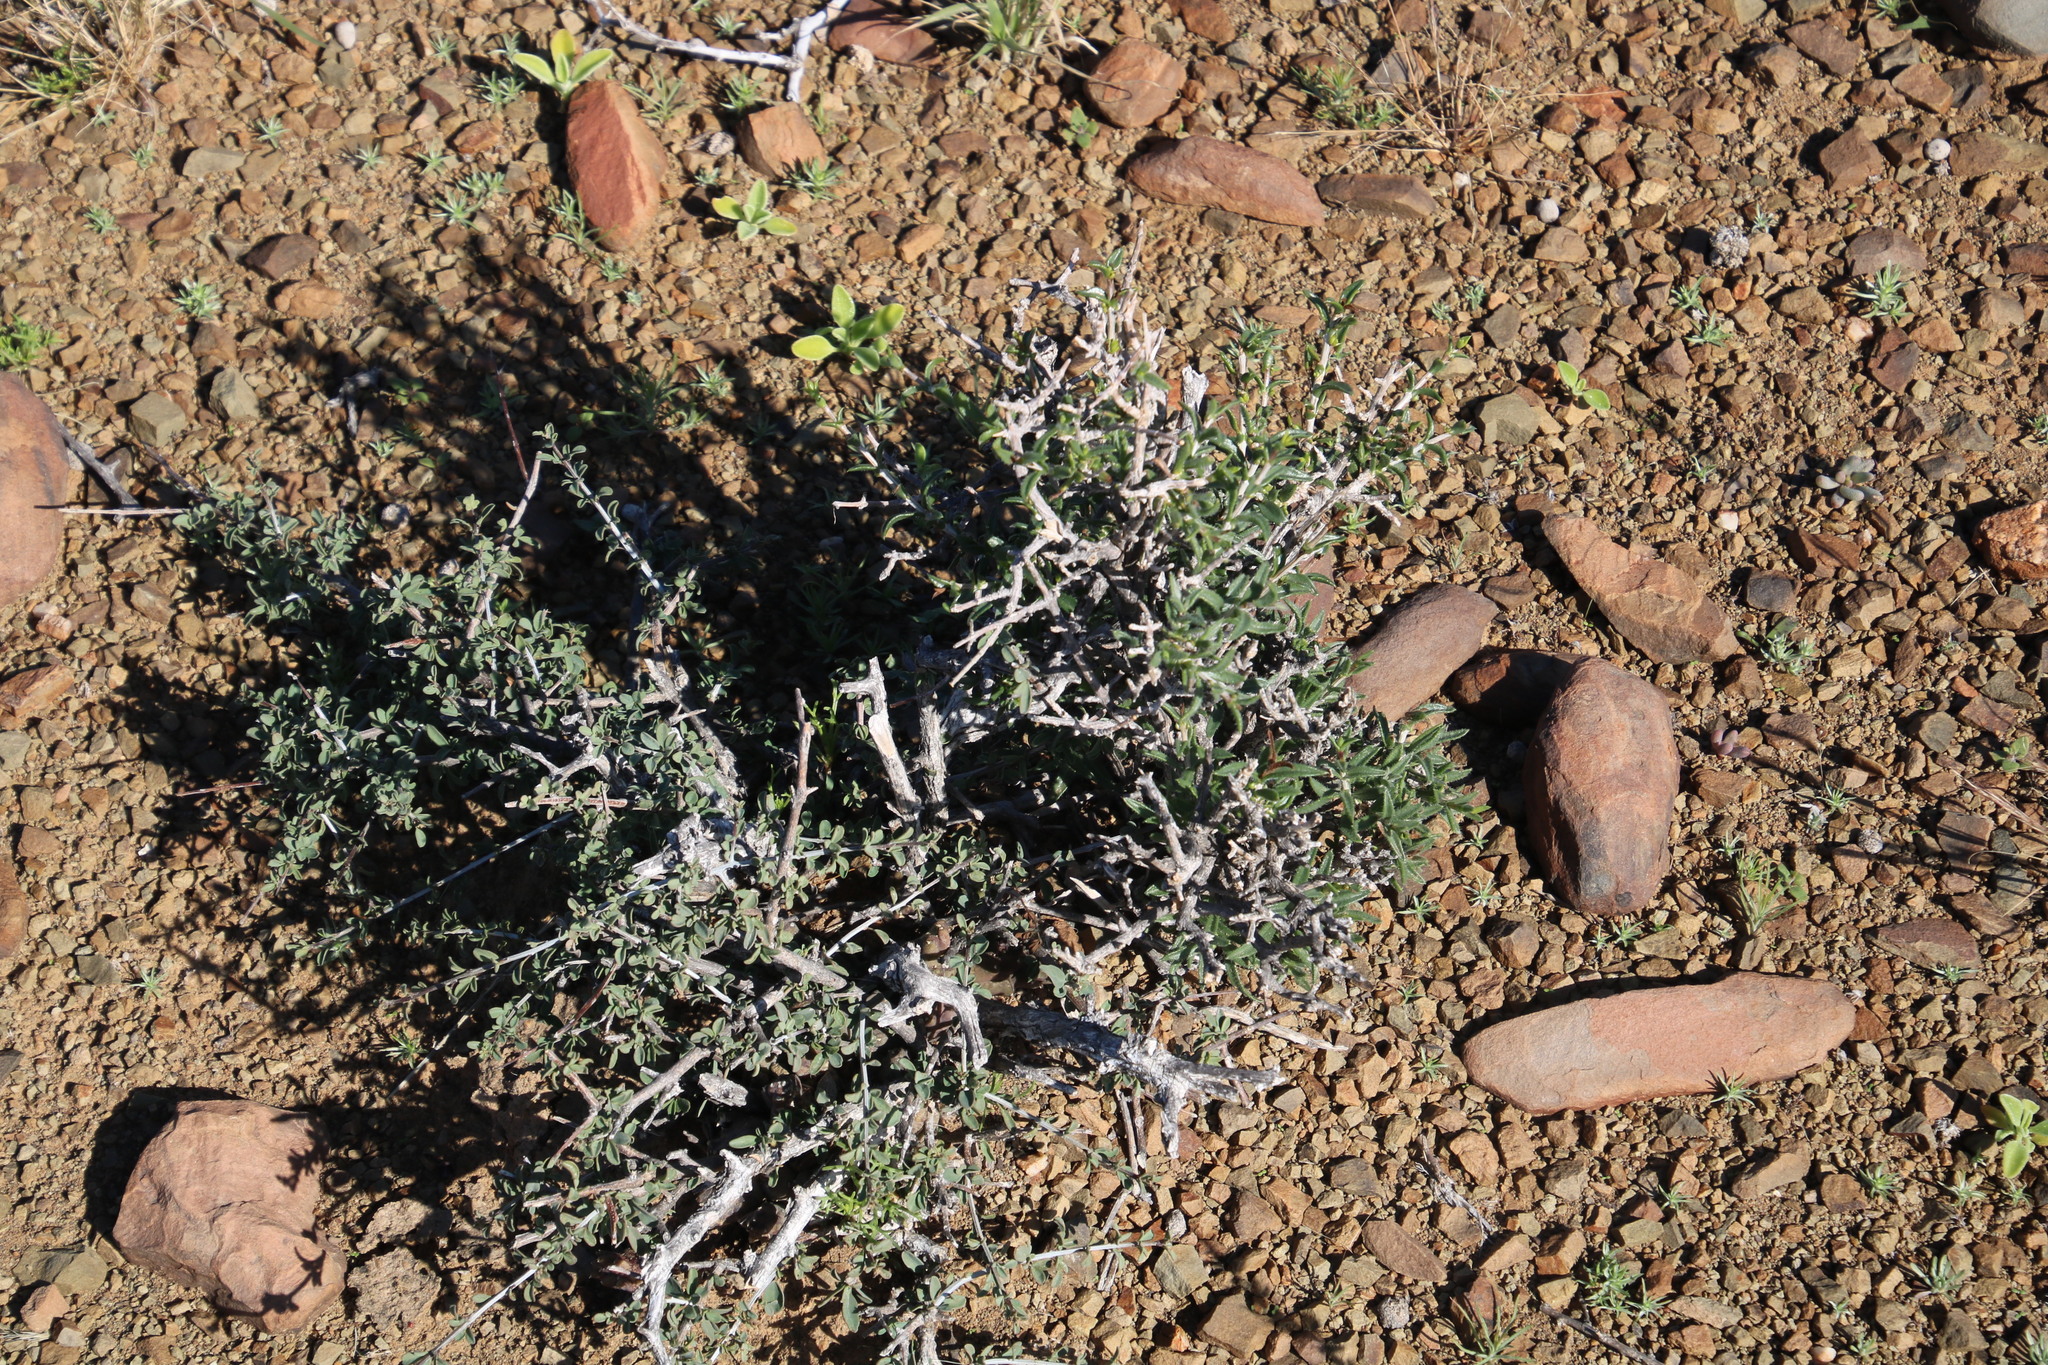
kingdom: Plantae
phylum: Tracheophyta
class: Magnoliopsida
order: Asterales
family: Asteraceae
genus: Pteronia
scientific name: Pteronia villosa
